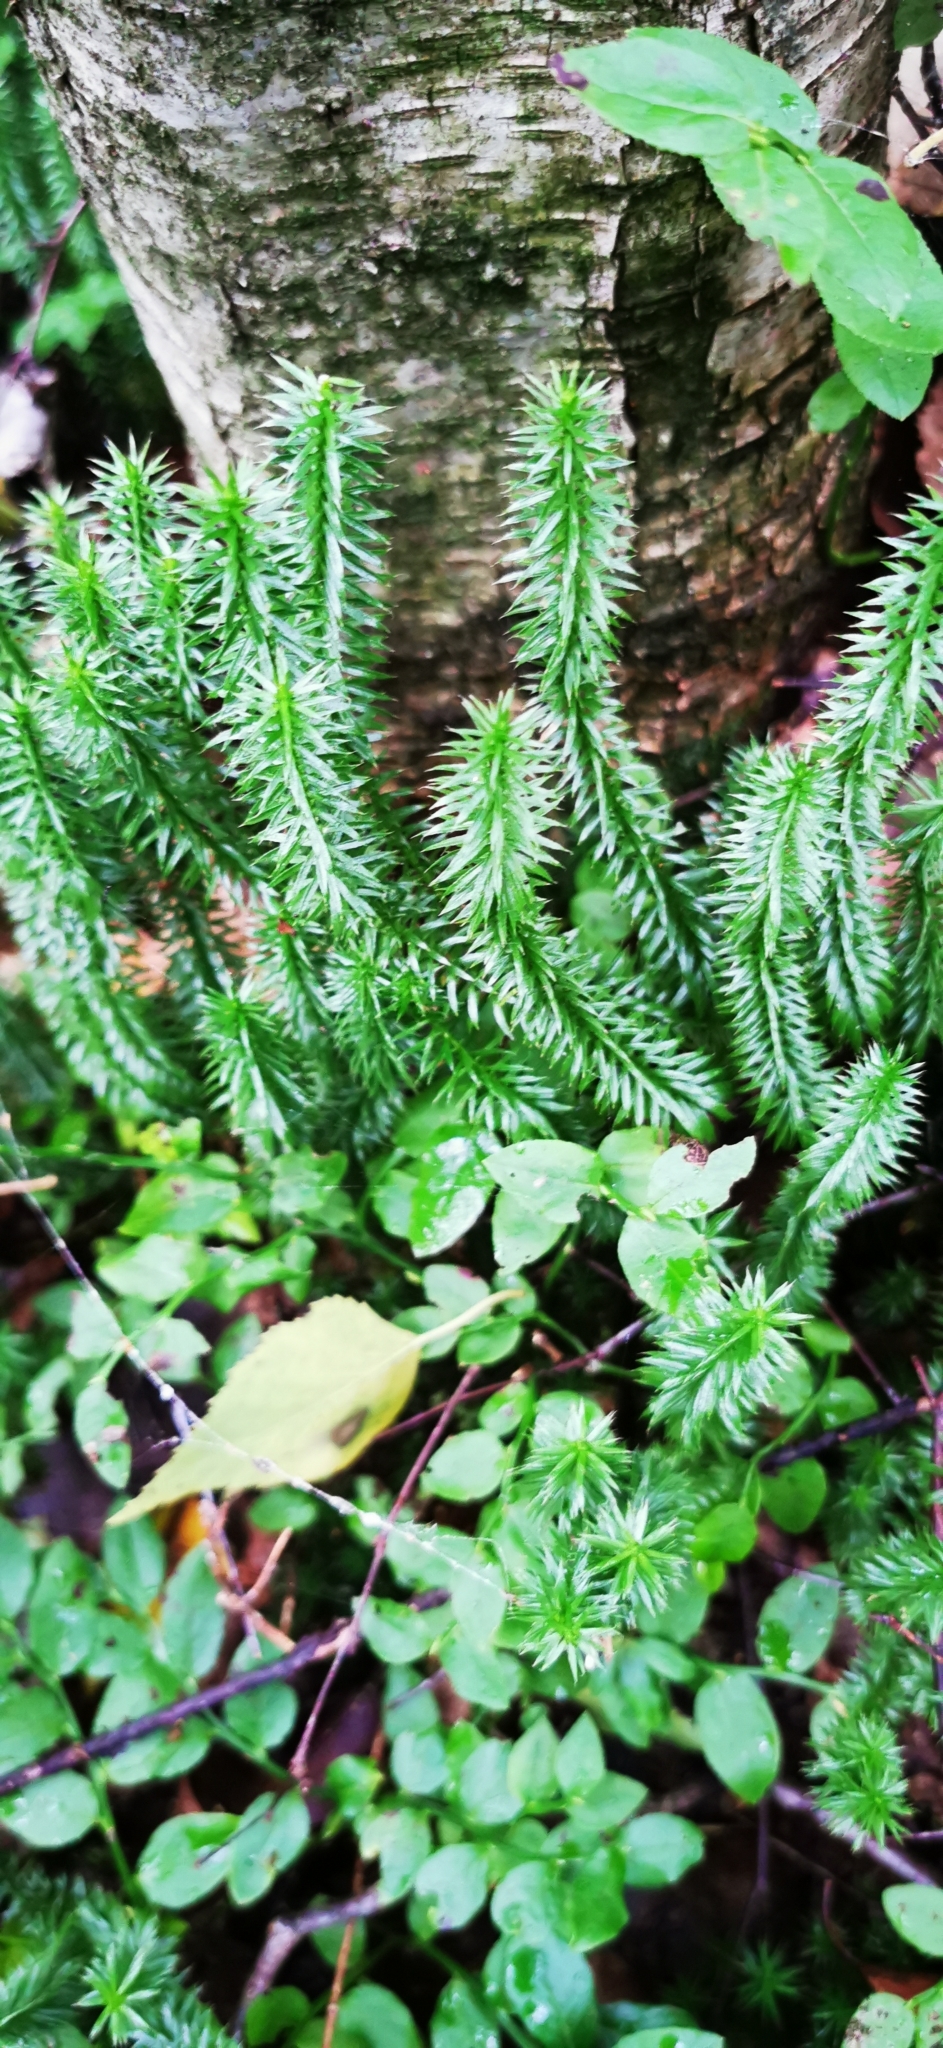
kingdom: Plantae
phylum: Tracheophyta
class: Lycopodiopsida
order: Lycopodiales
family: Lycopodiaceae
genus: Spinulum
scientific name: Spinulum annotinum
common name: Interrupted club-moss
